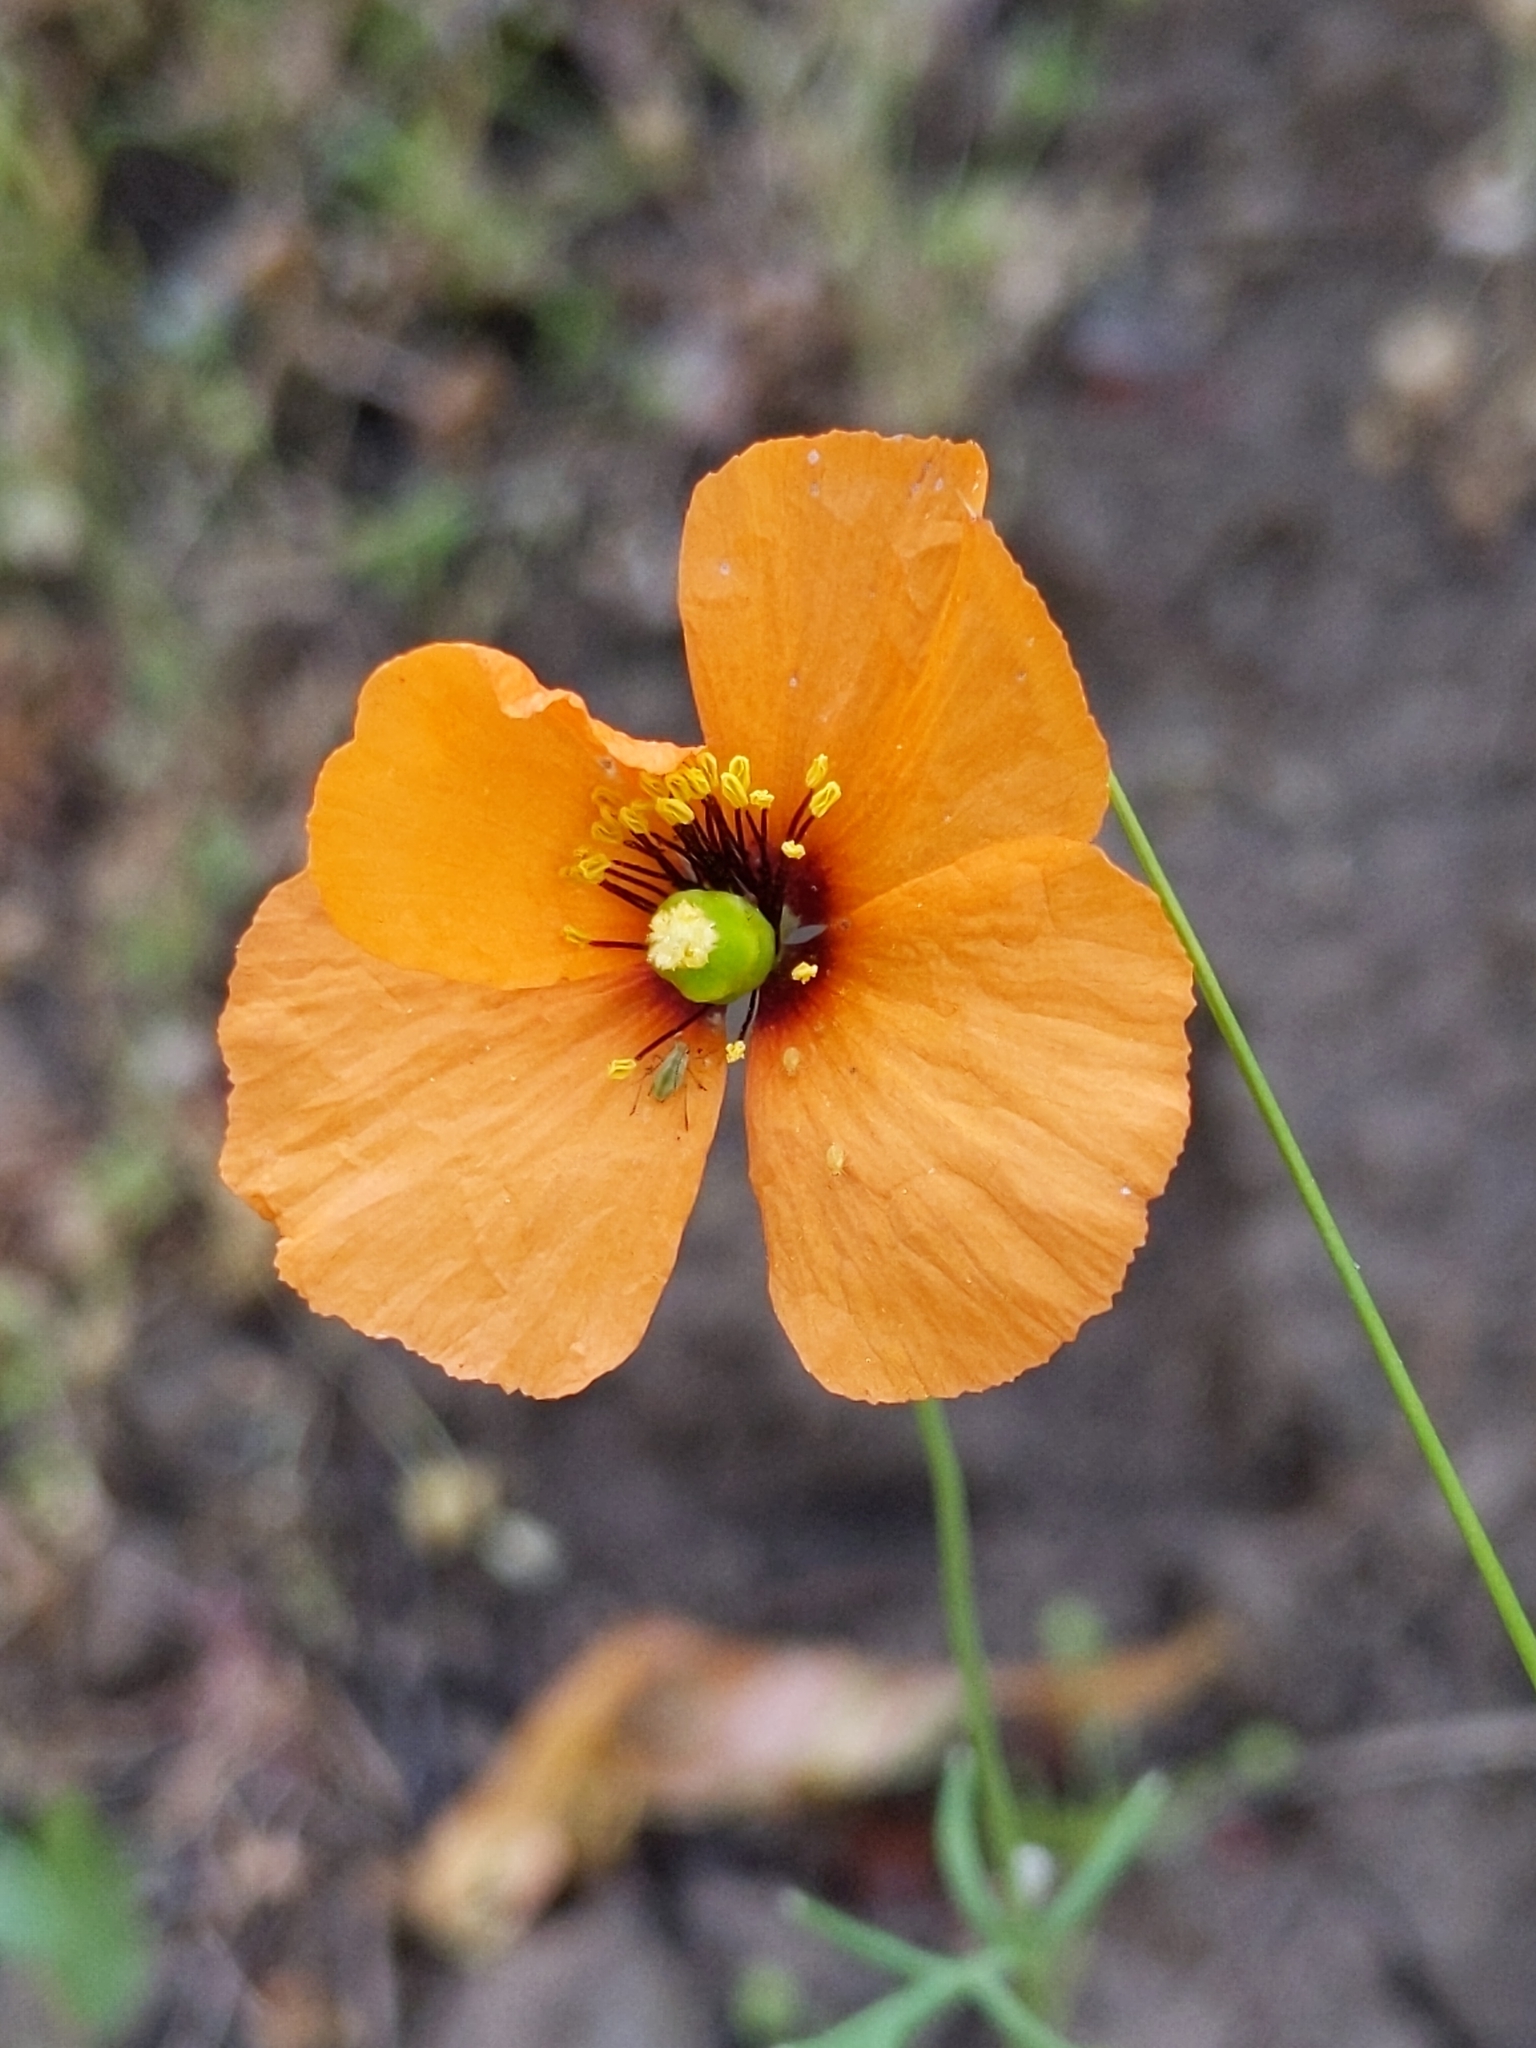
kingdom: Plantae
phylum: Tracheophyta
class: Magnoliopsida
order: Ranunculales
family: Papaveraceae
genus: Stylomecon
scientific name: Stylomecon heterophylla
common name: Flaming-poppy
